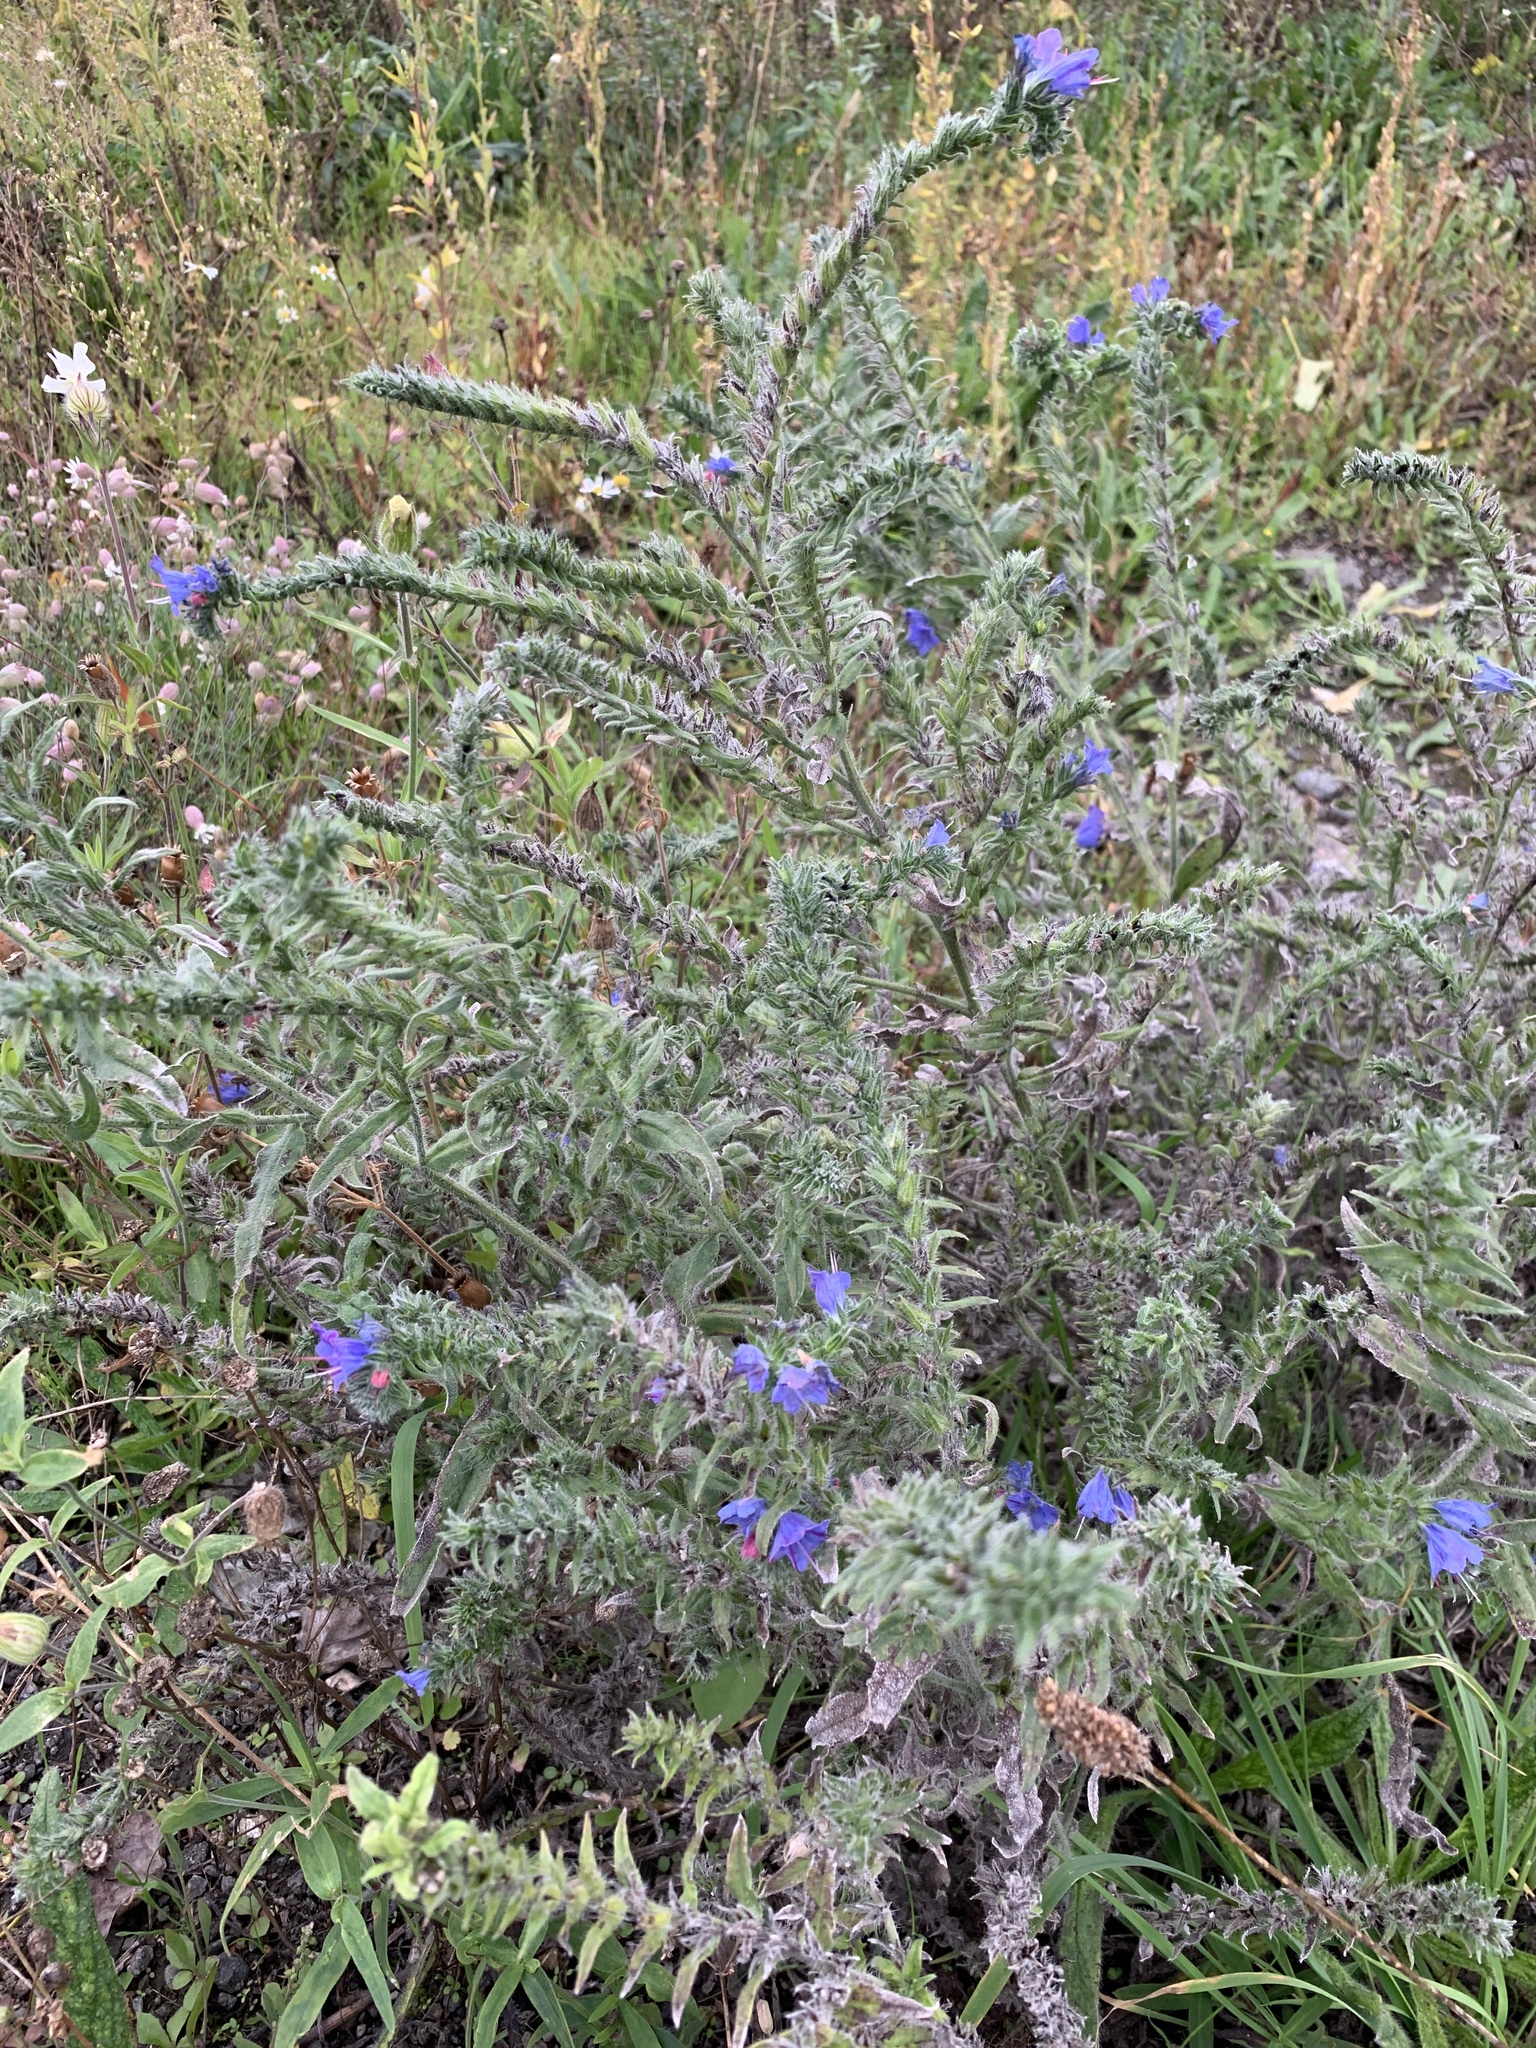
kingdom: Plantae
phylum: Tracheophyta
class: Magnoliopsida
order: Boraginales
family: Boraginaceae
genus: Echium
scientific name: Echium vulgare
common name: Common viper's bugloss
